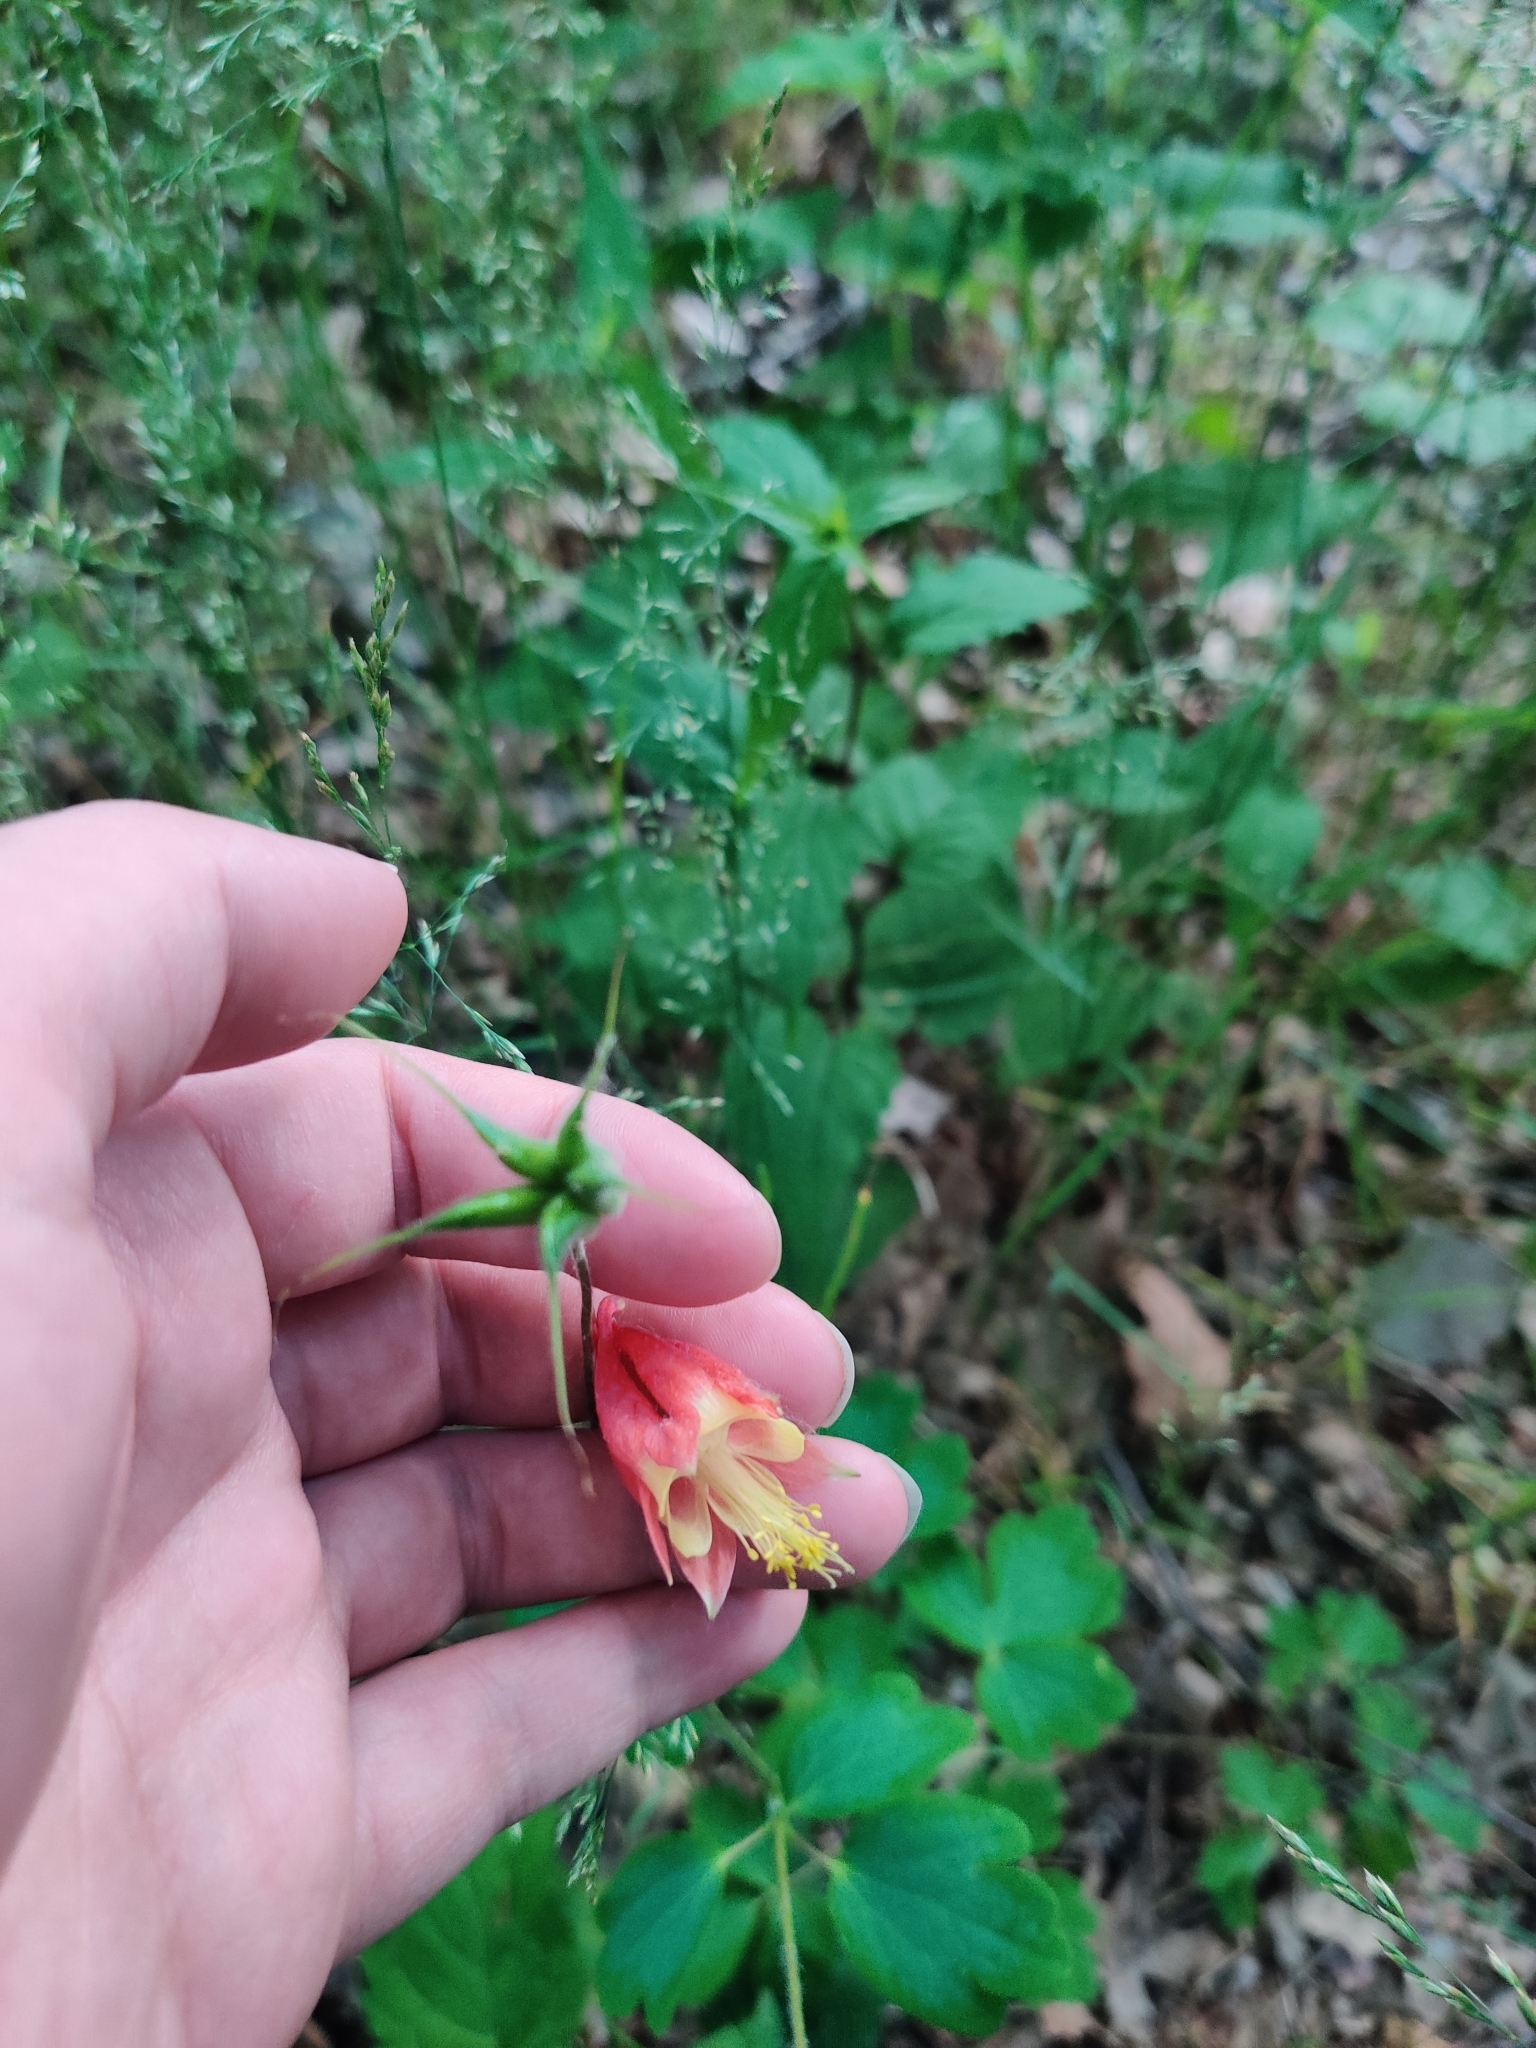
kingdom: Plantae
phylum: Tracheophyta
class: Magnoliopsida
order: Ranunculales
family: Ranunculaceae
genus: Aquilegia
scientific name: Aquilegia canadensis
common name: American columbine
